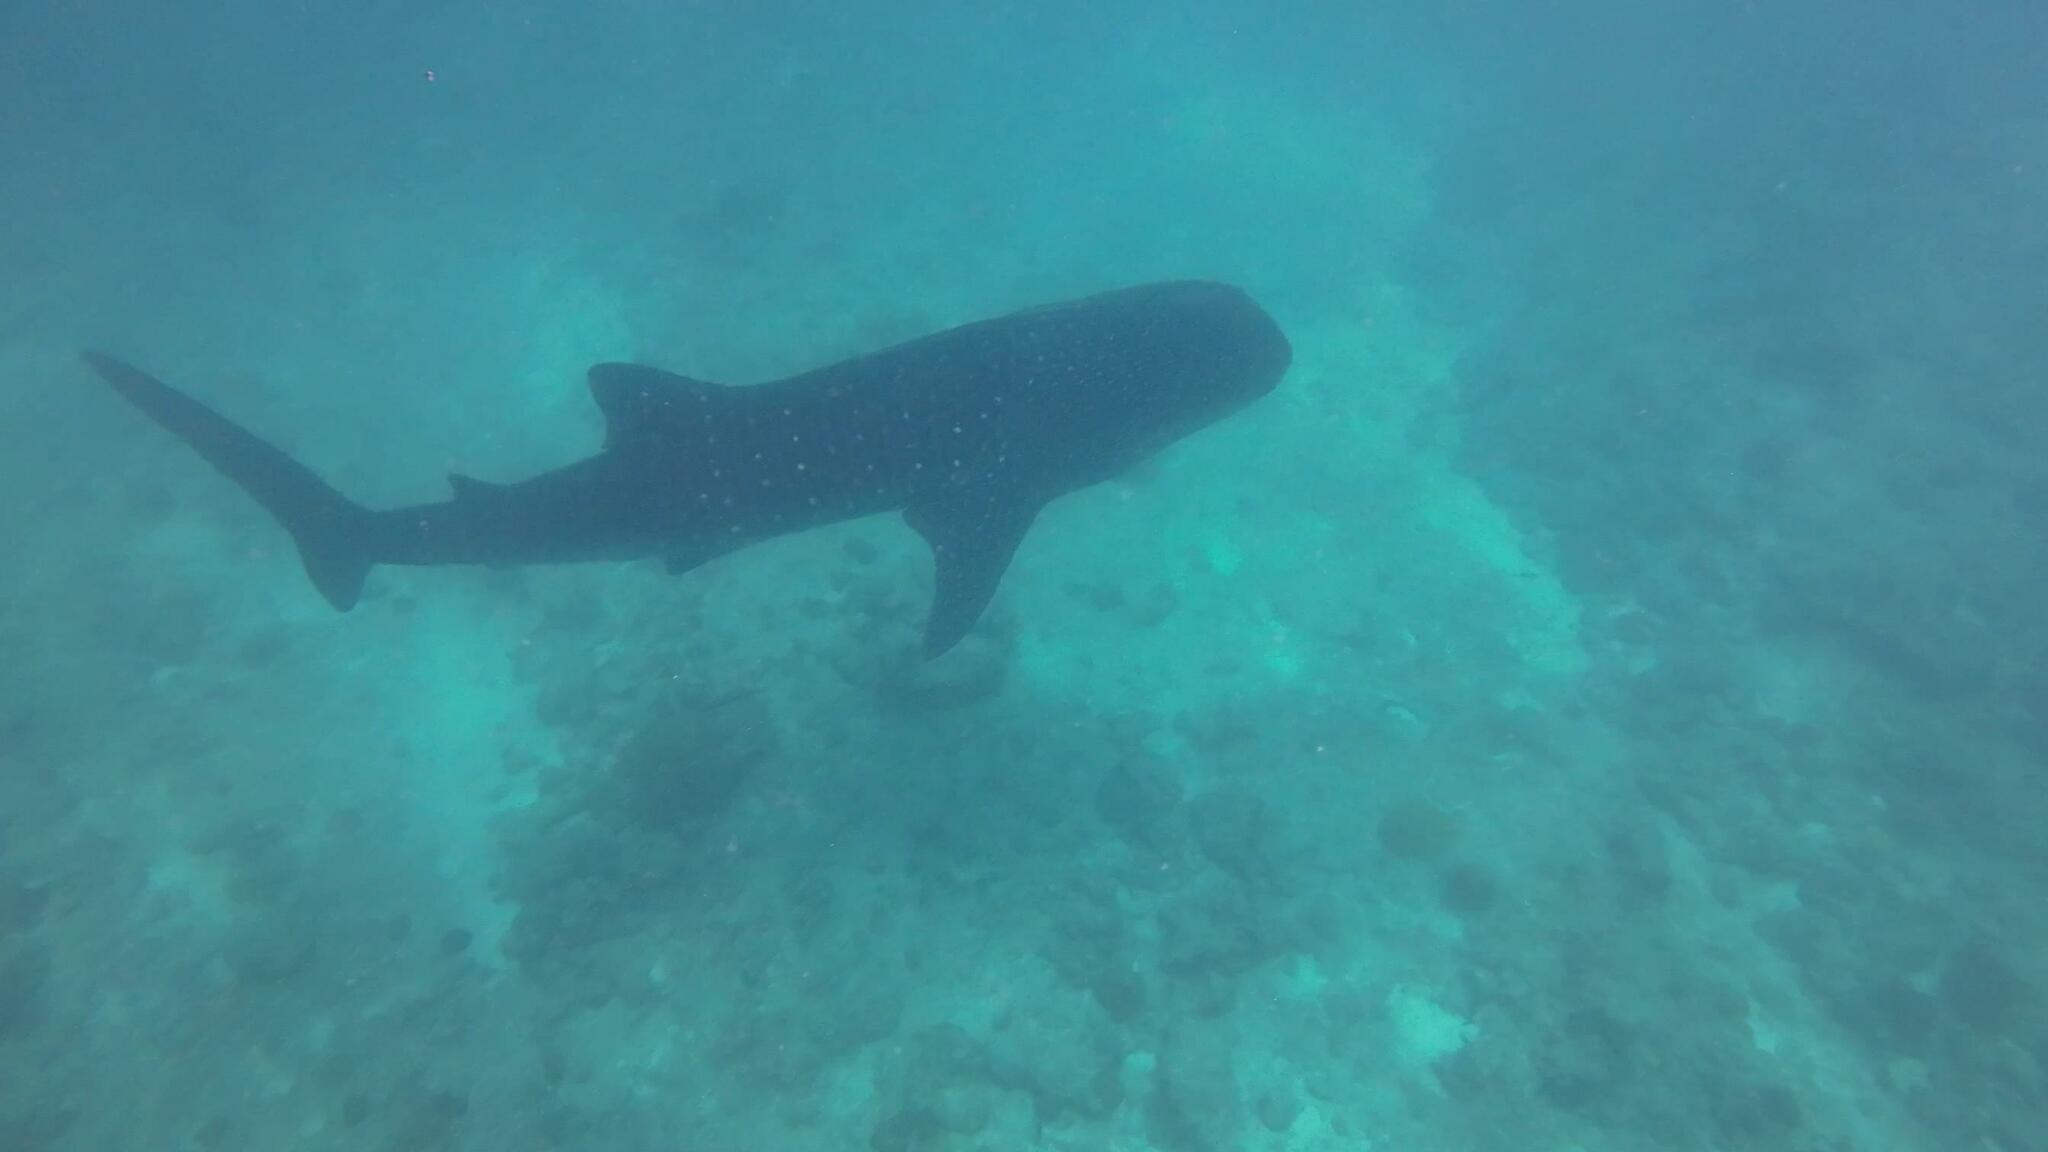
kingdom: Animalia
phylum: Chordata
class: Elasmobranchii
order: Orectolobiformes
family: Rhincodontidae
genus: Rhincodon
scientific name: Rhincodon typus
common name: Whale shark
